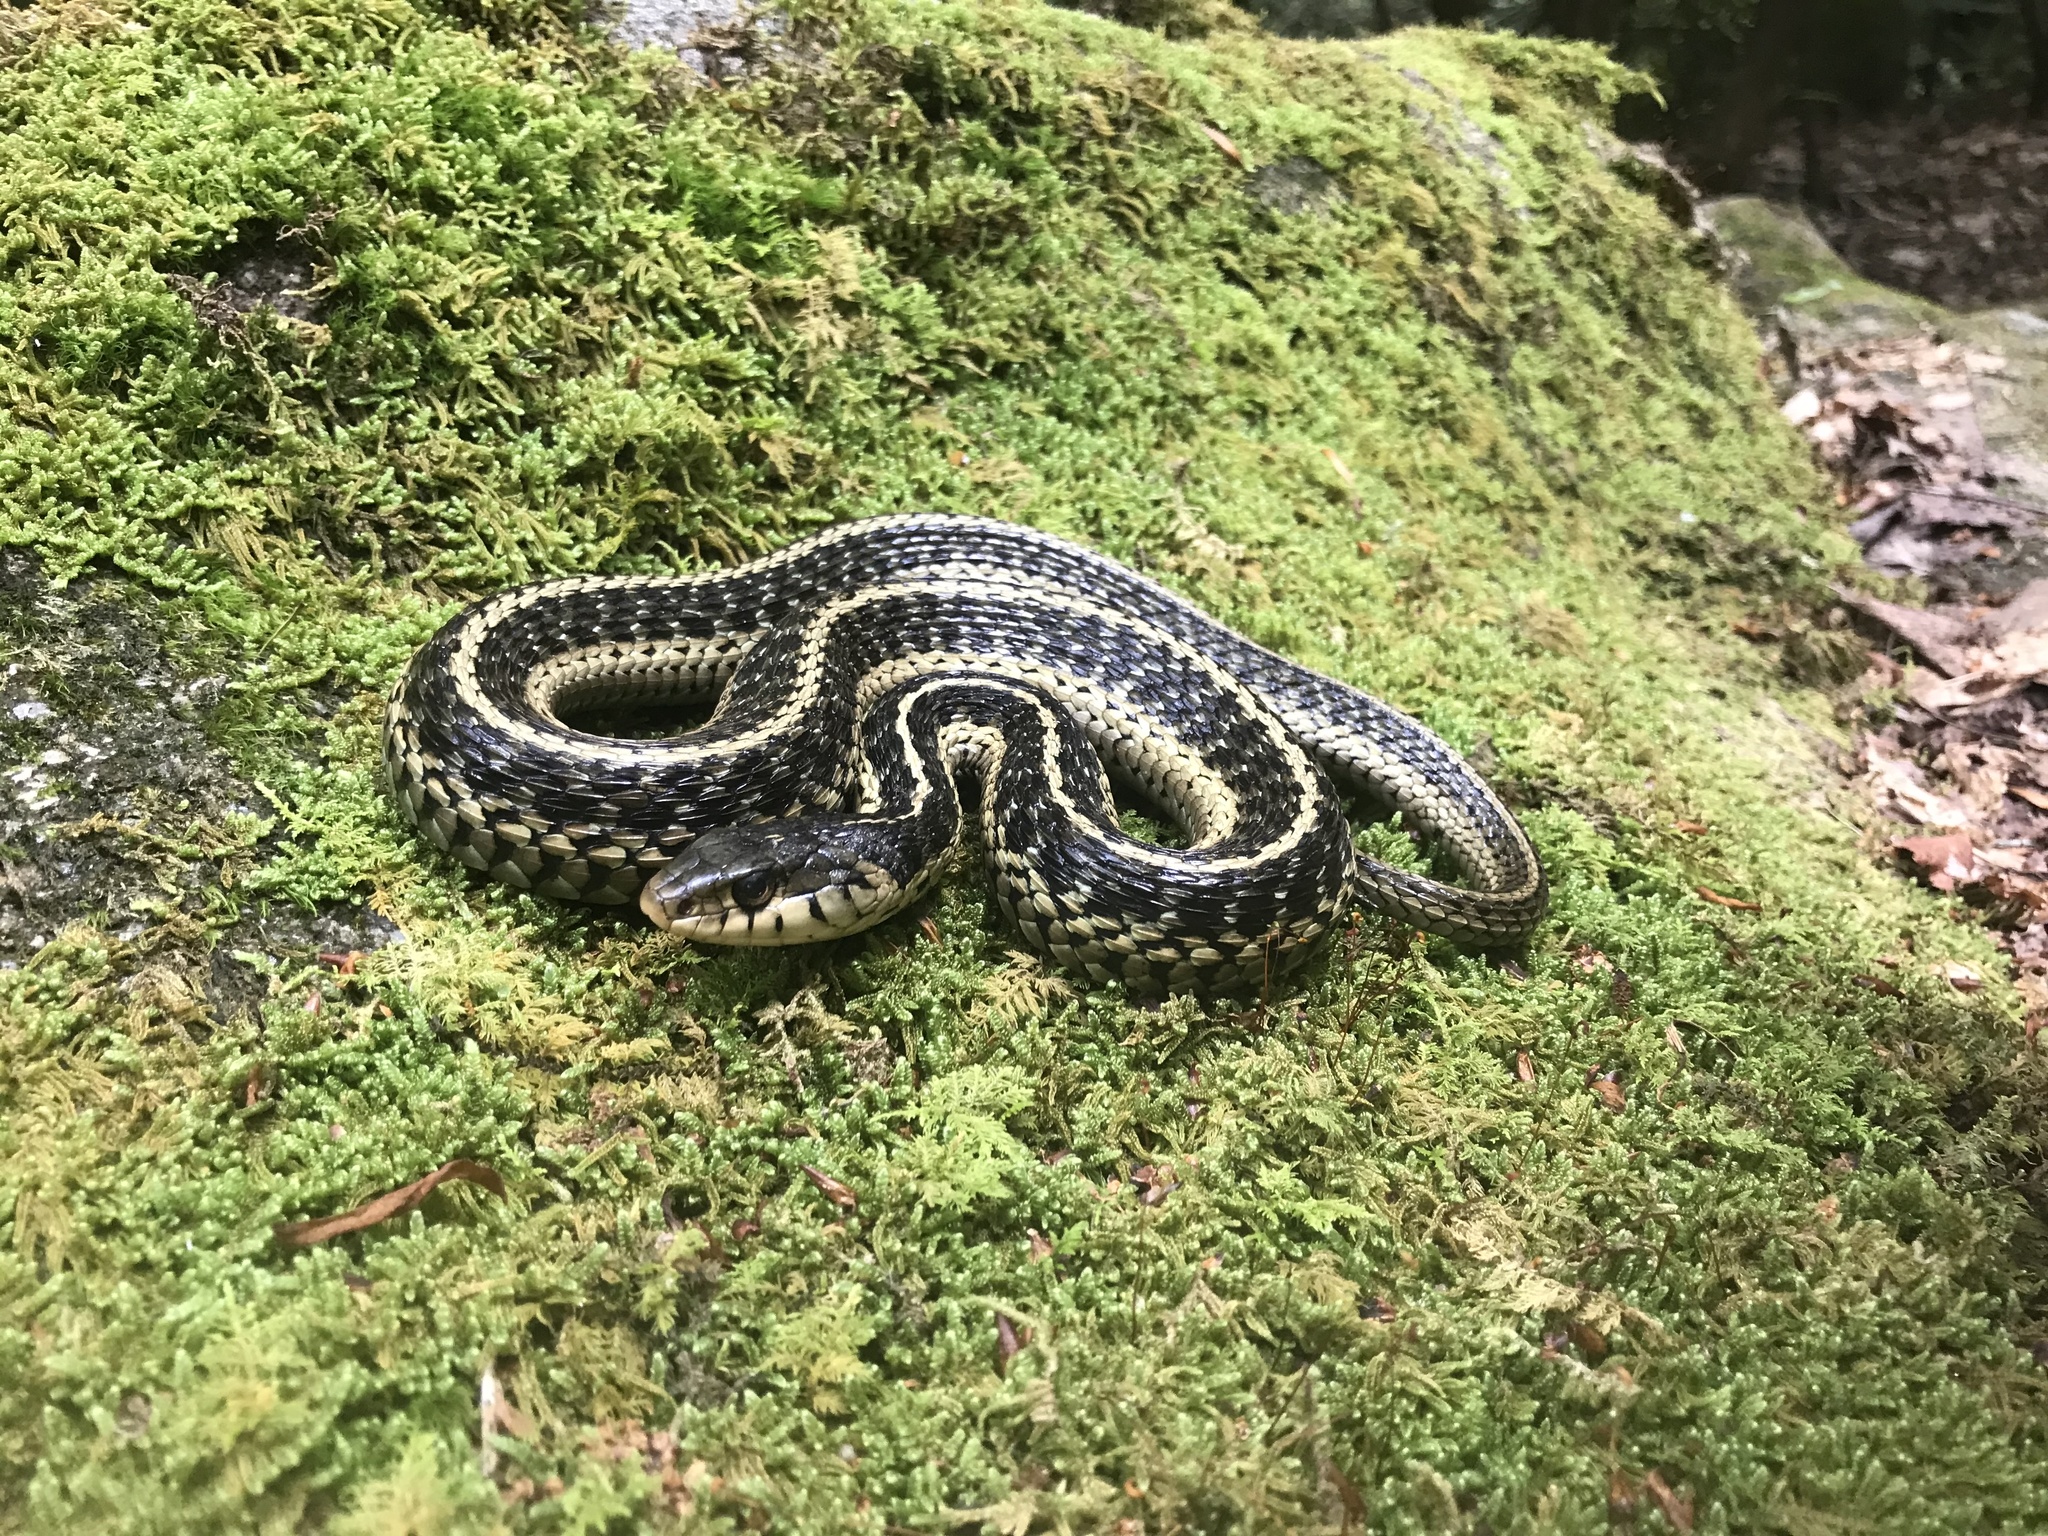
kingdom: Animalia
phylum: Chordata
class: Squamata
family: Colubridae
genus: Thamnophis
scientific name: Thamnophis sirtalis
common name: Common garter snake
